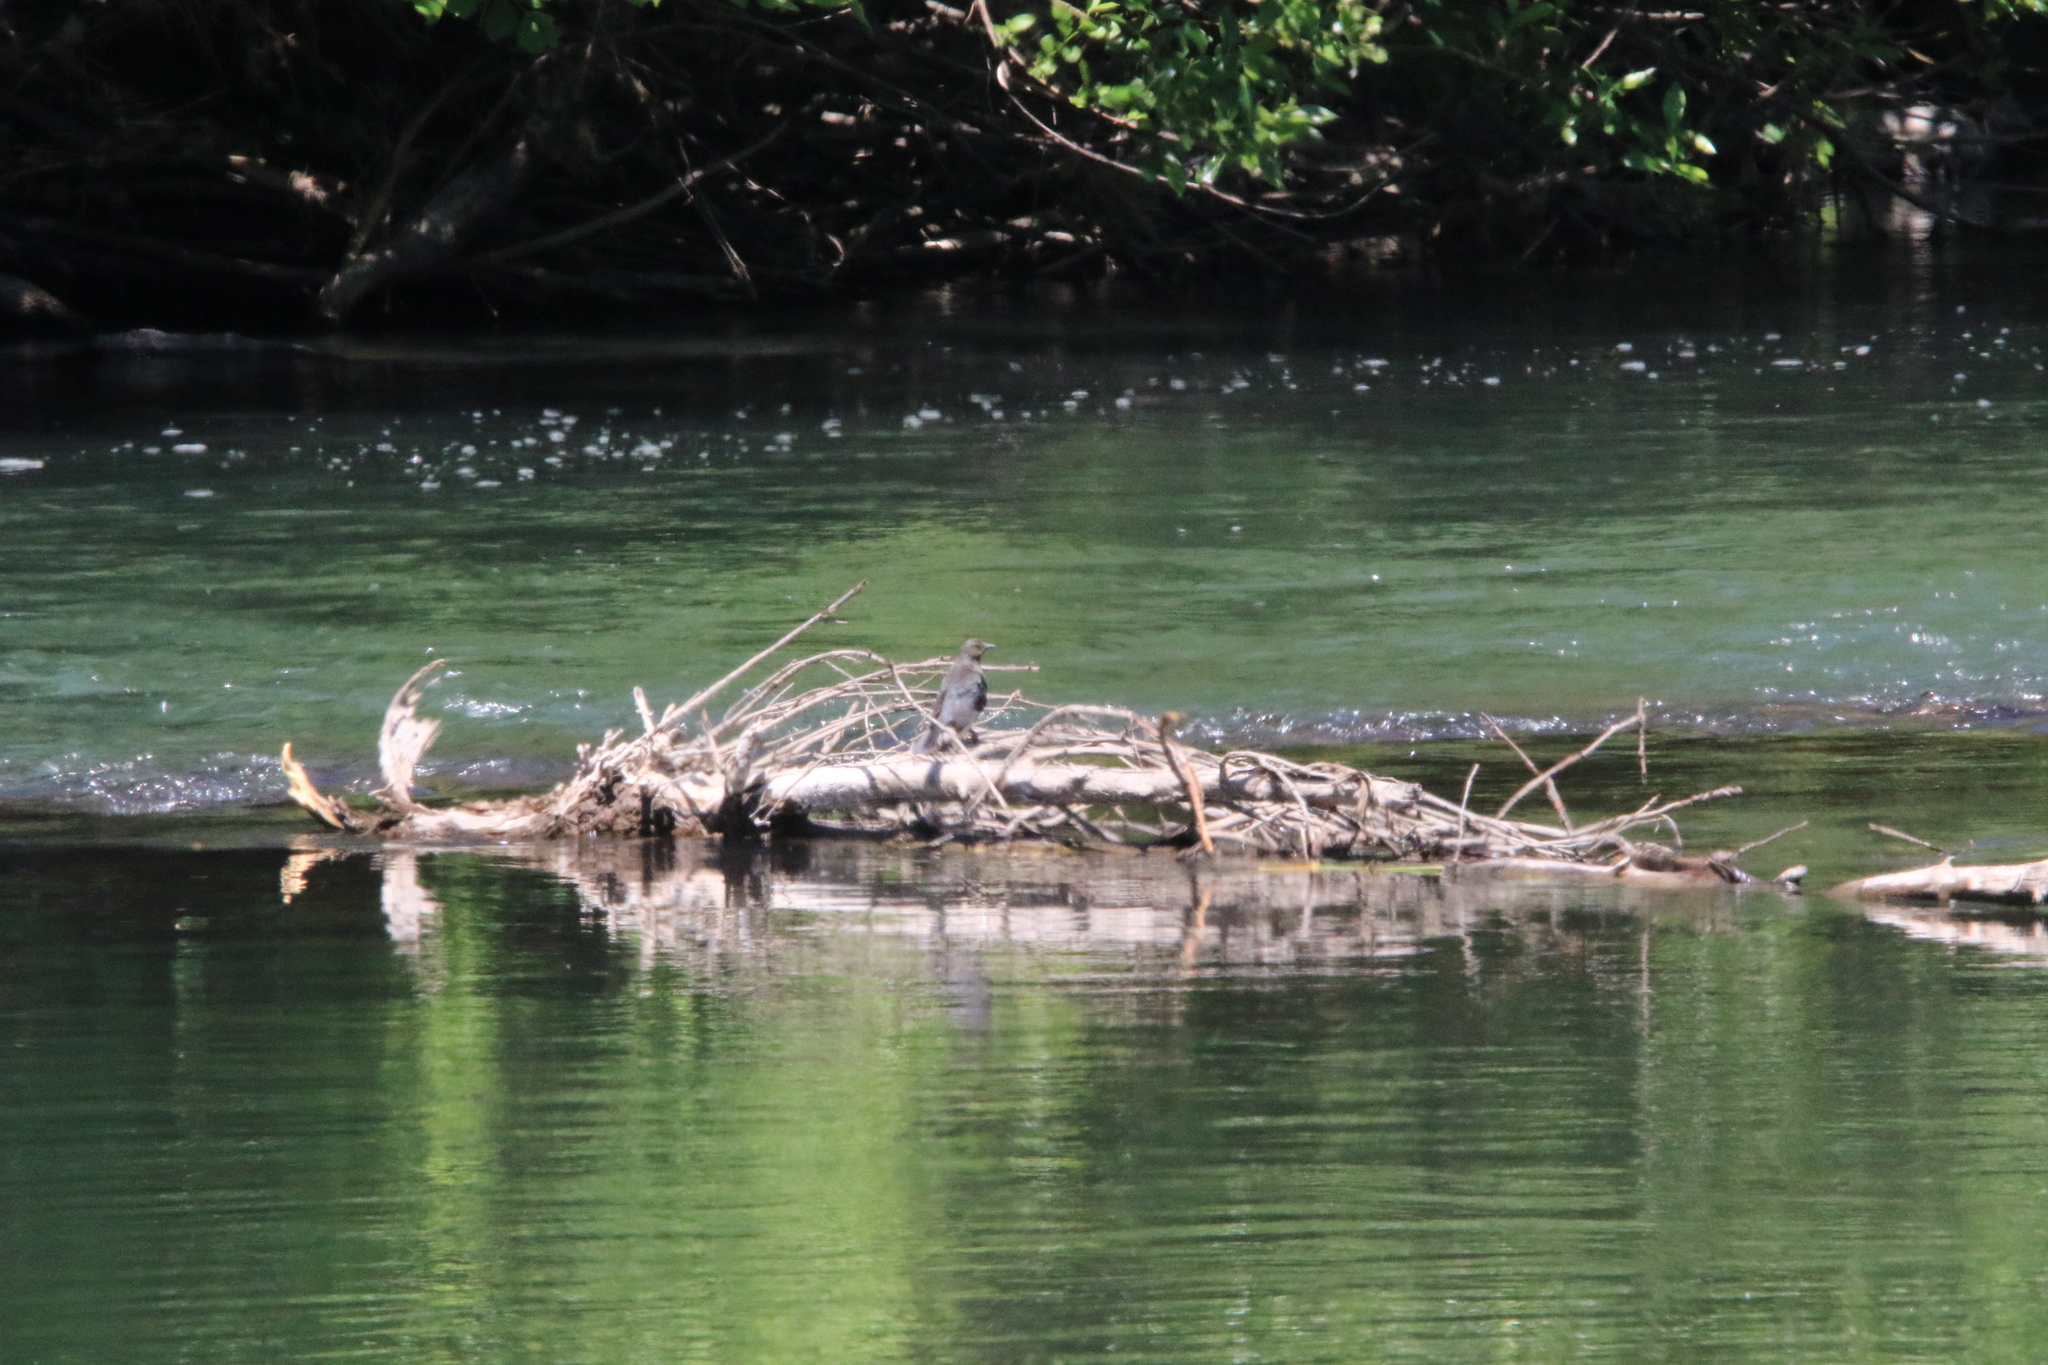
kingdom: Animalia
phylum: Chordata
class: Aves
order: Passeriformes
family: Icteridae
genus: Euphagus
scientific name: Euphagus cyanocephalus
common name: Brewer's blackbird
